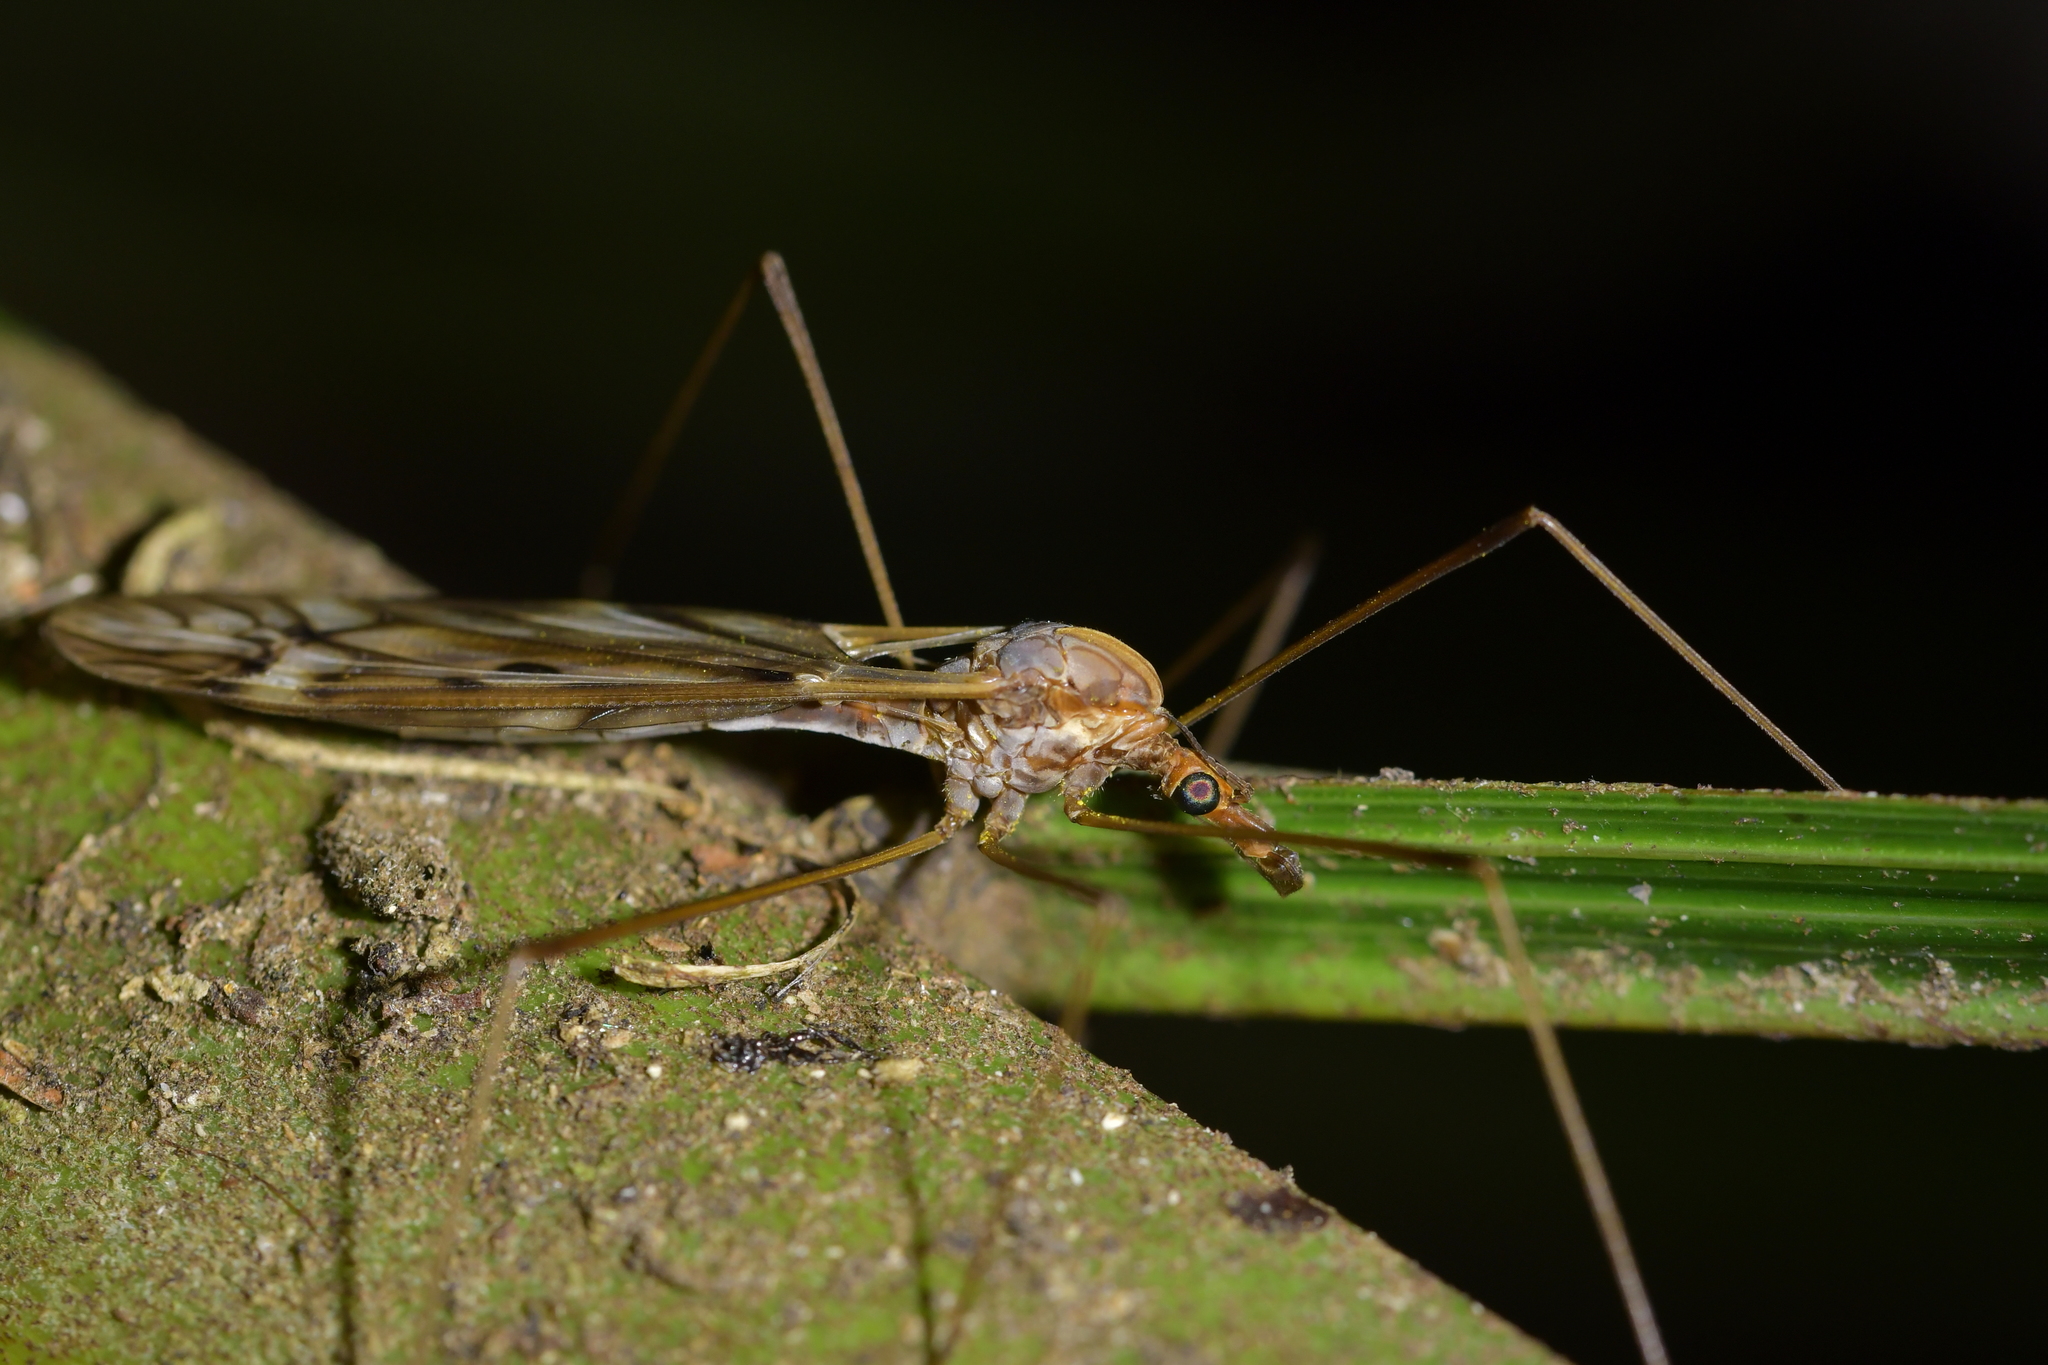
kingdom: Animalia
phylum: Arthropoda
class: Insecta
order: Diptera
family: Tipulidae
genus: Zelandotipula
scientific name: Zelandotipula novarae
